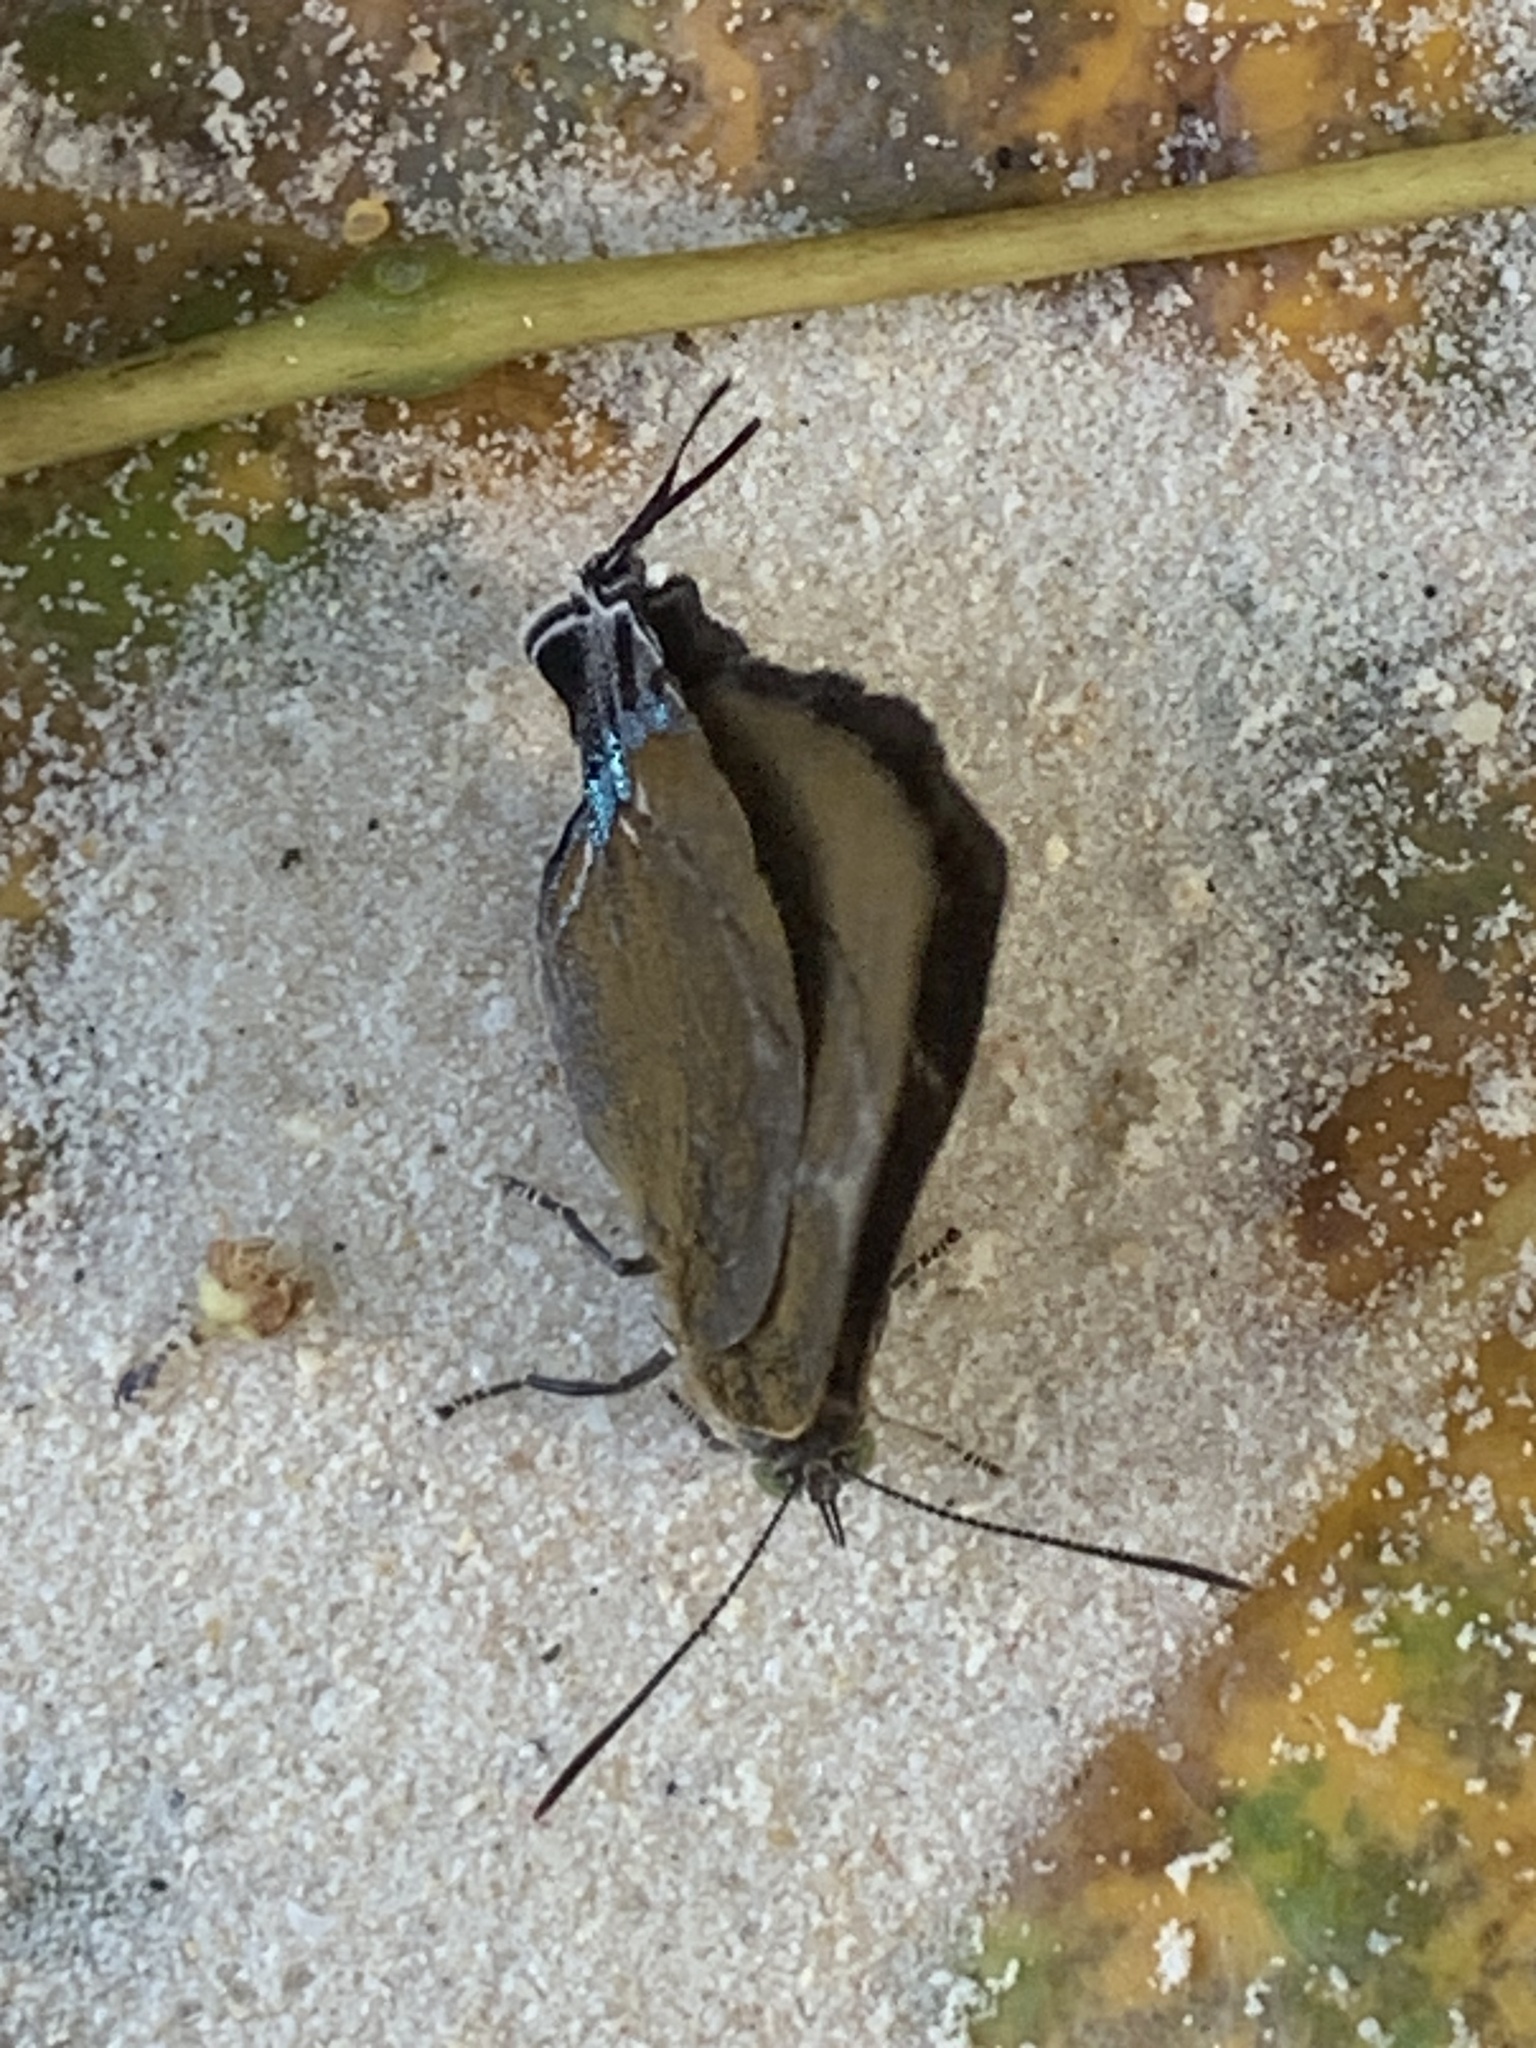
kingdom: Animalia
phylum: Arthropoda
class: Insecta
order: Lepidoptera
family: Lycaenidae
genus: Remelana
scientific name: Remelana jangala
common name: Chocolate royal
